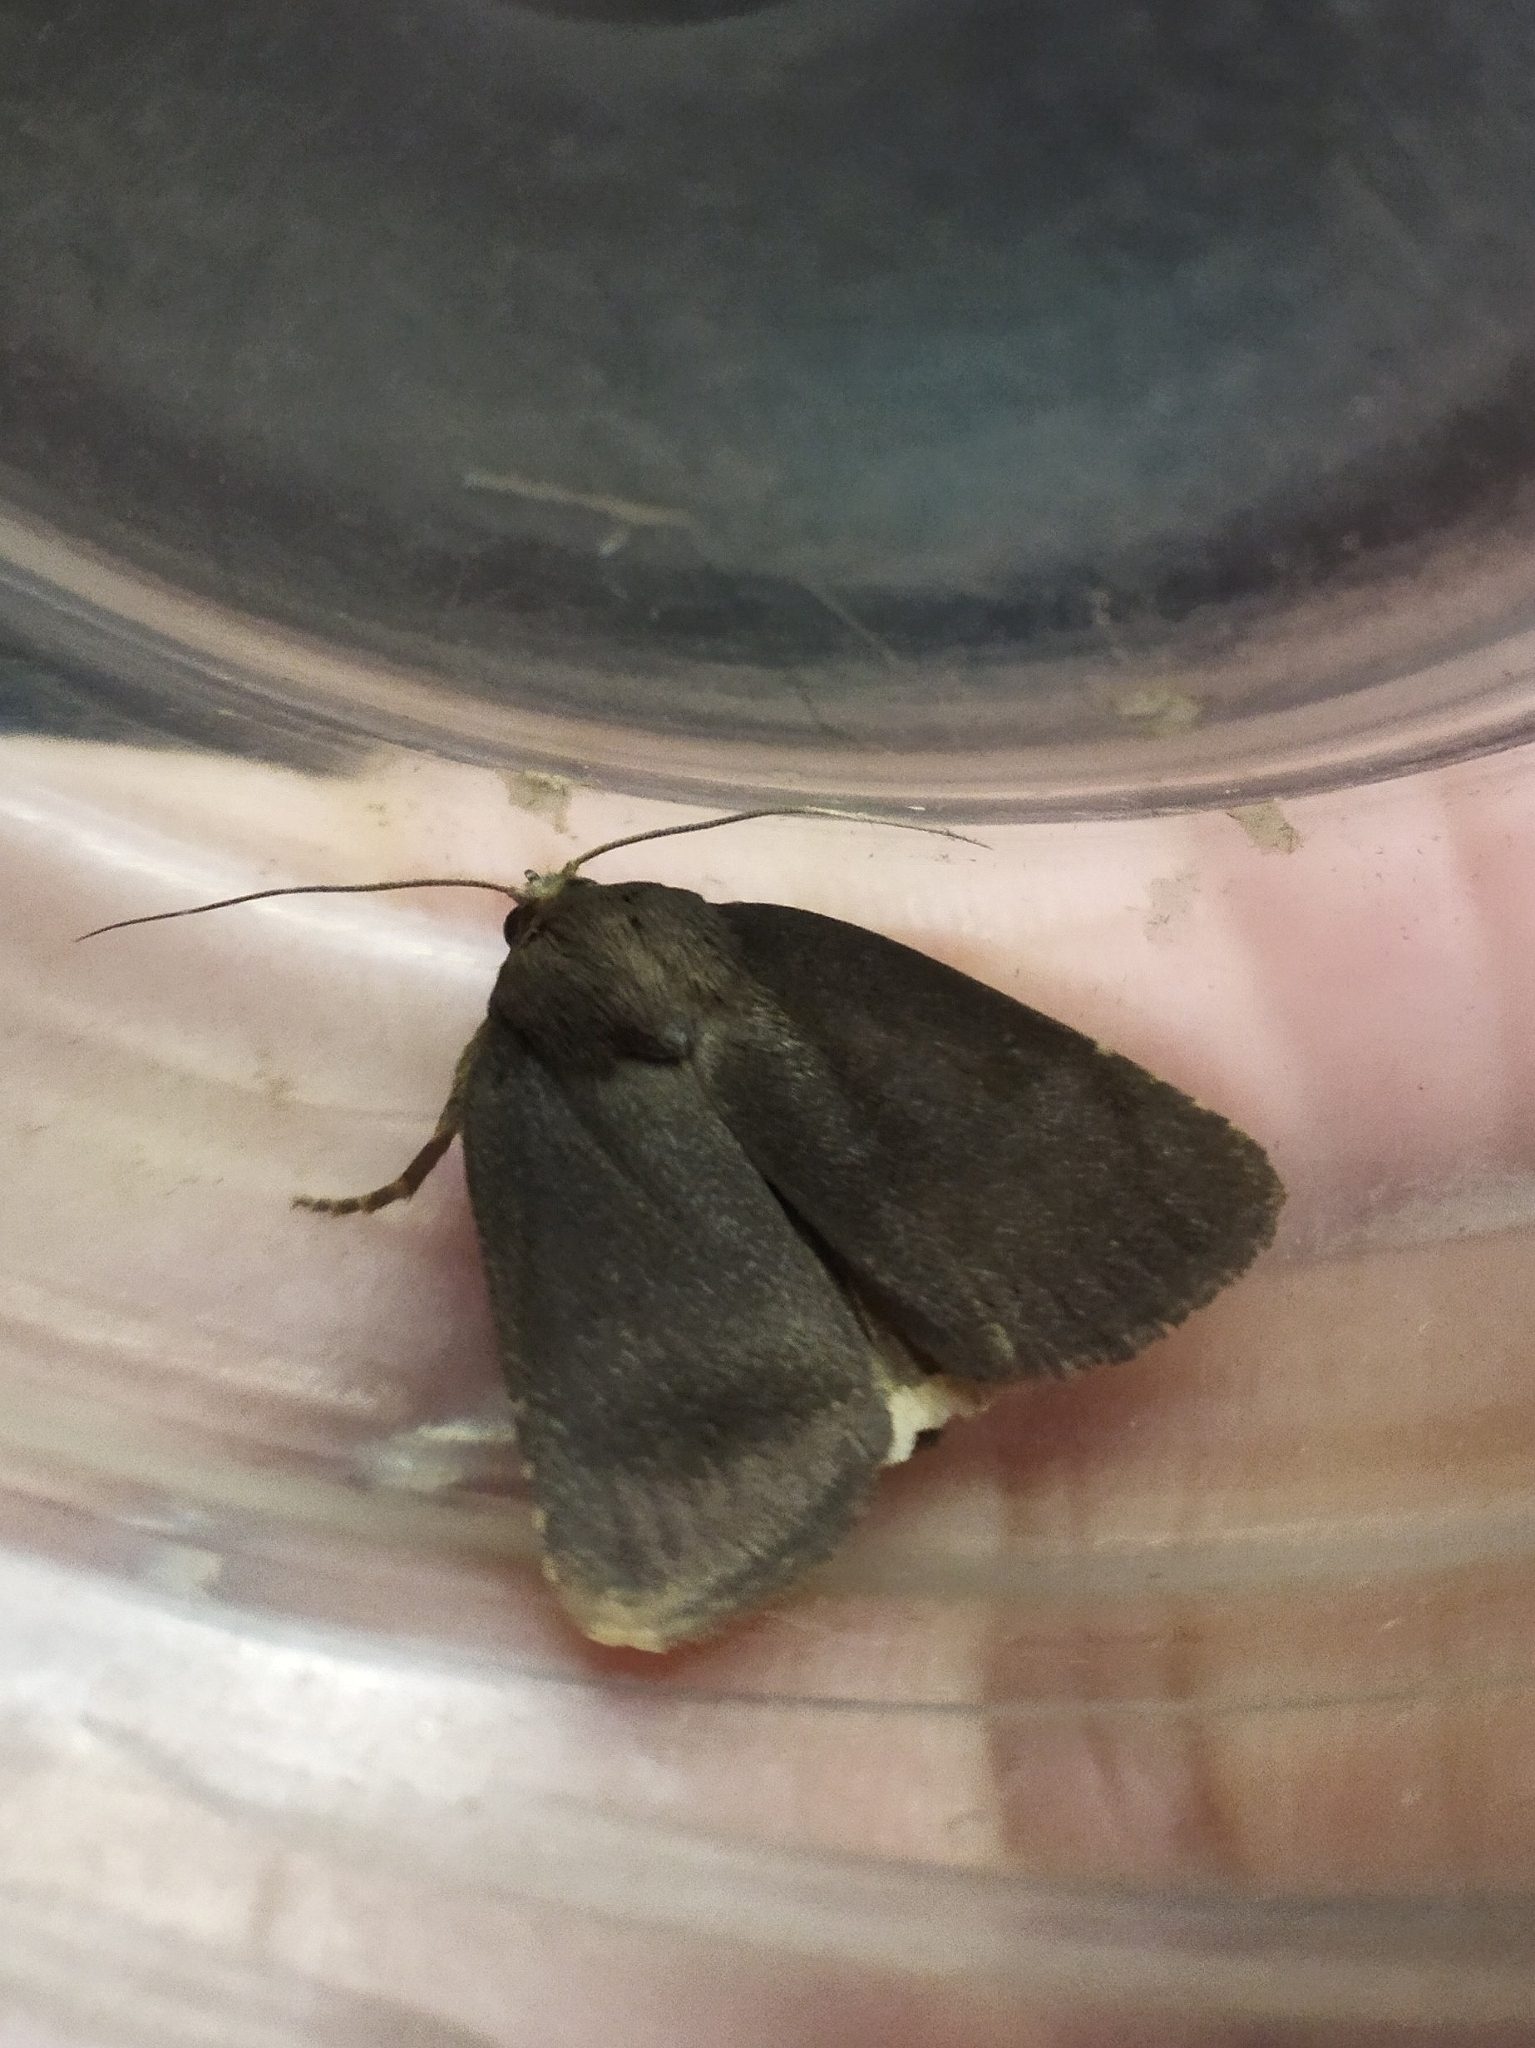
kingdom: Animalia
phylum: Arthropoda
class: Insecta
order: Lepidoptera
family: Noctuidae
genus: Amphipyra
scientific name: Amphipyra tetra
